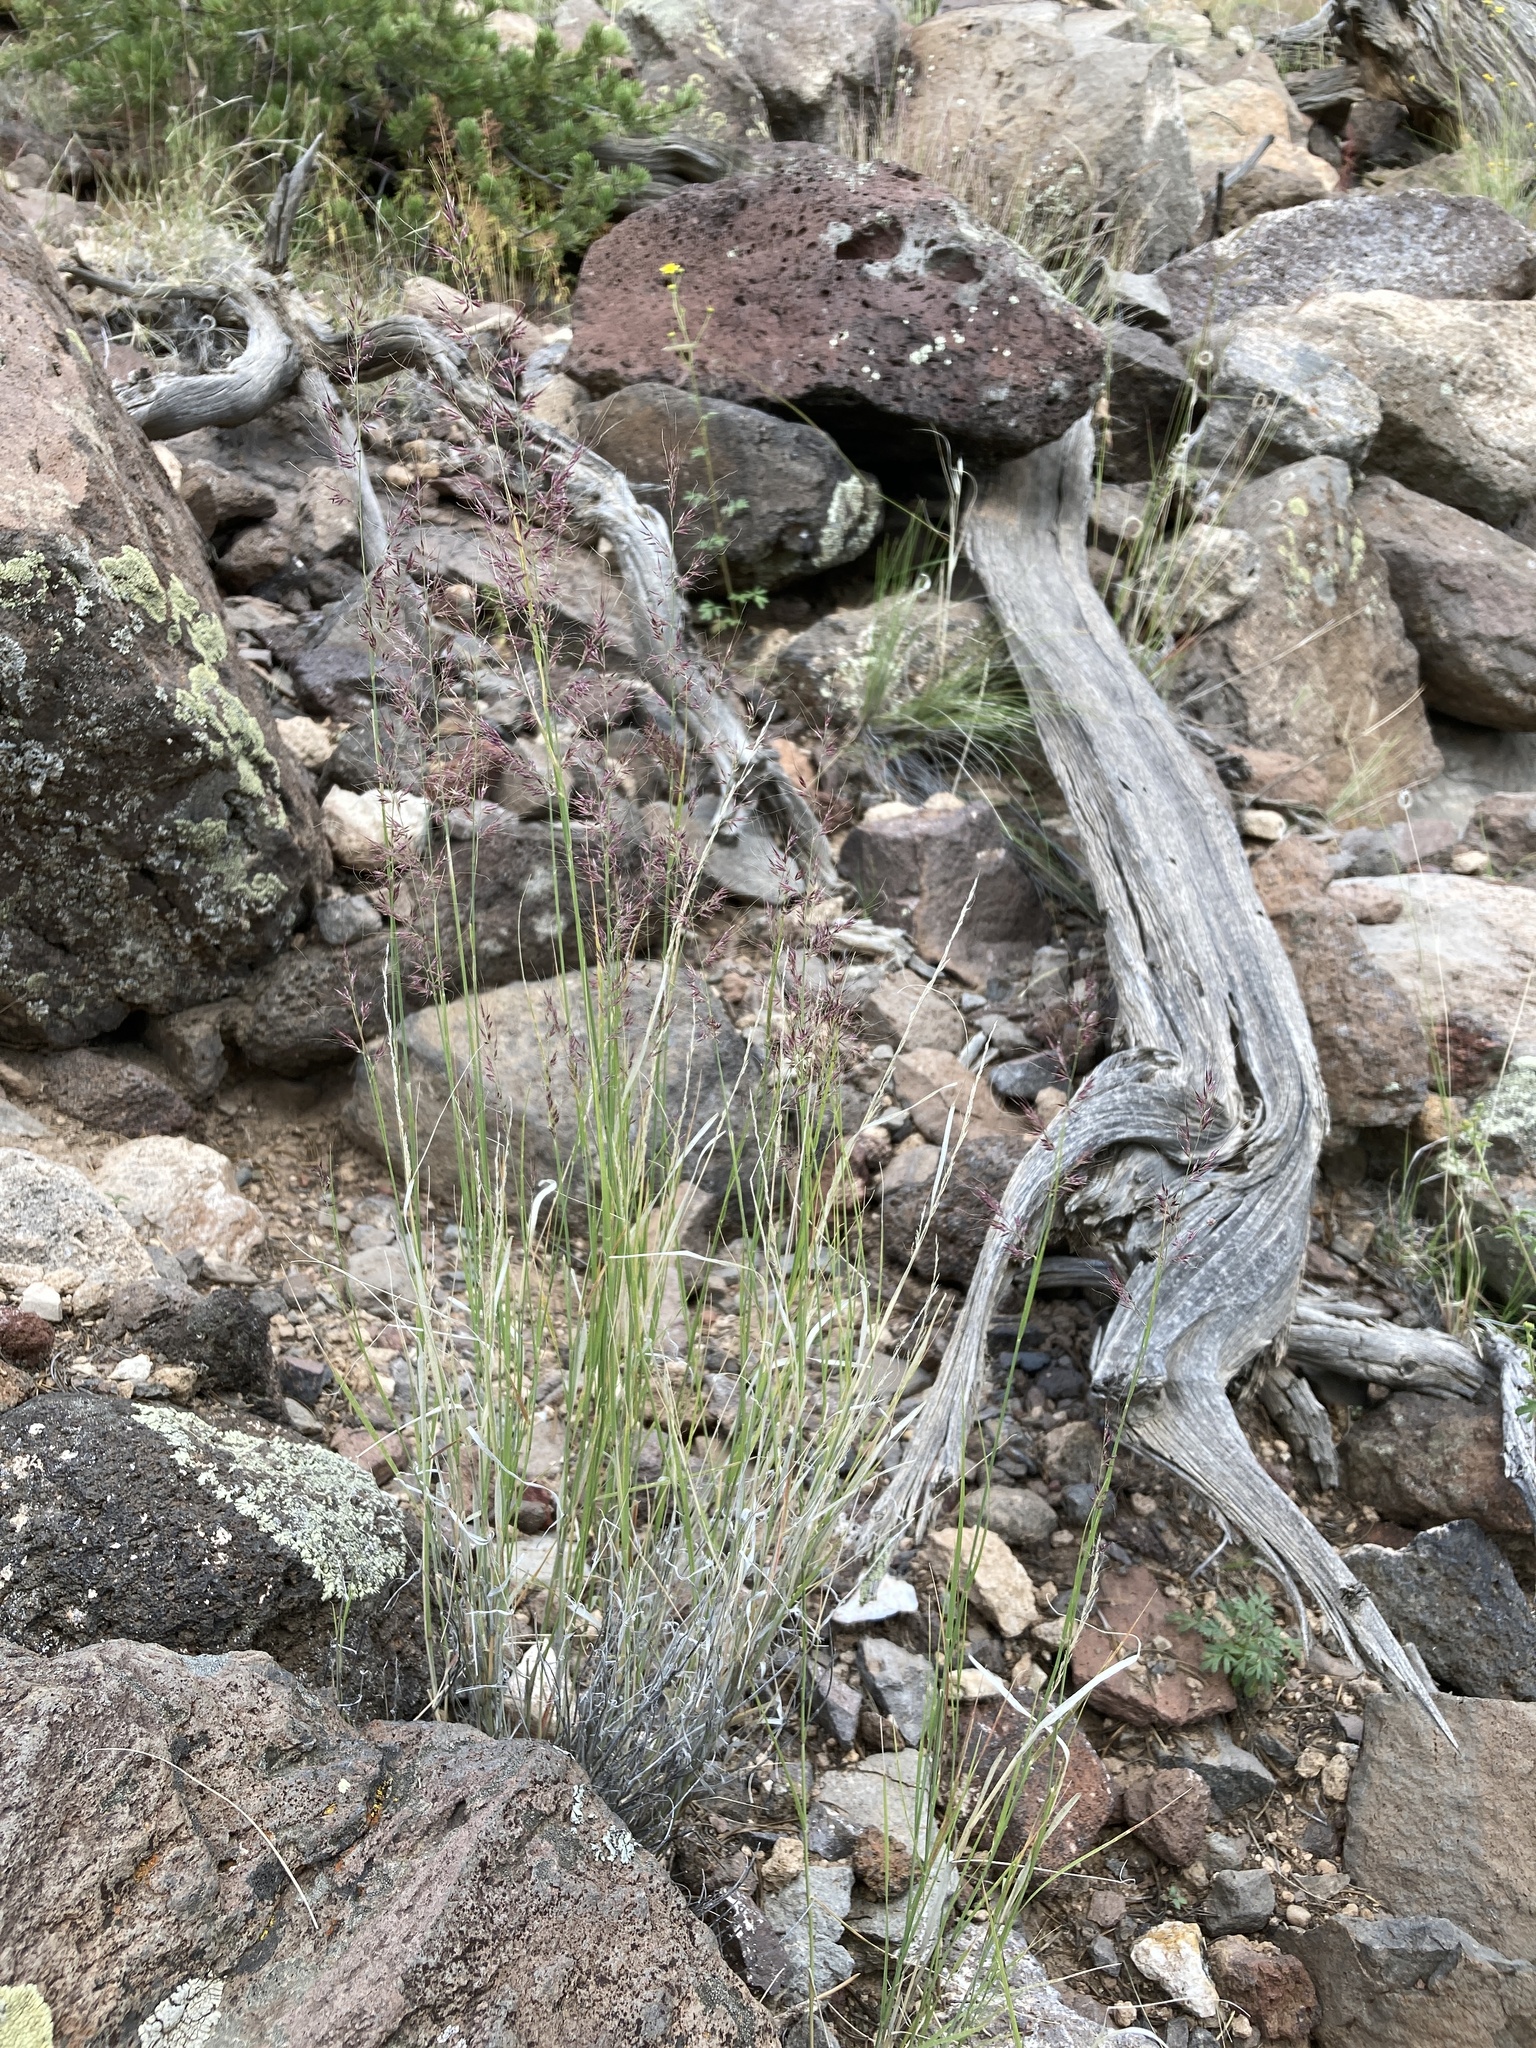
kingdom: Plantae
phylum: Tracheophyta
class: Liliopsida
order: Poales
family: Poaceae
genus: Muhlenbergia
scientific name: Muhlenbergia pauciflora
